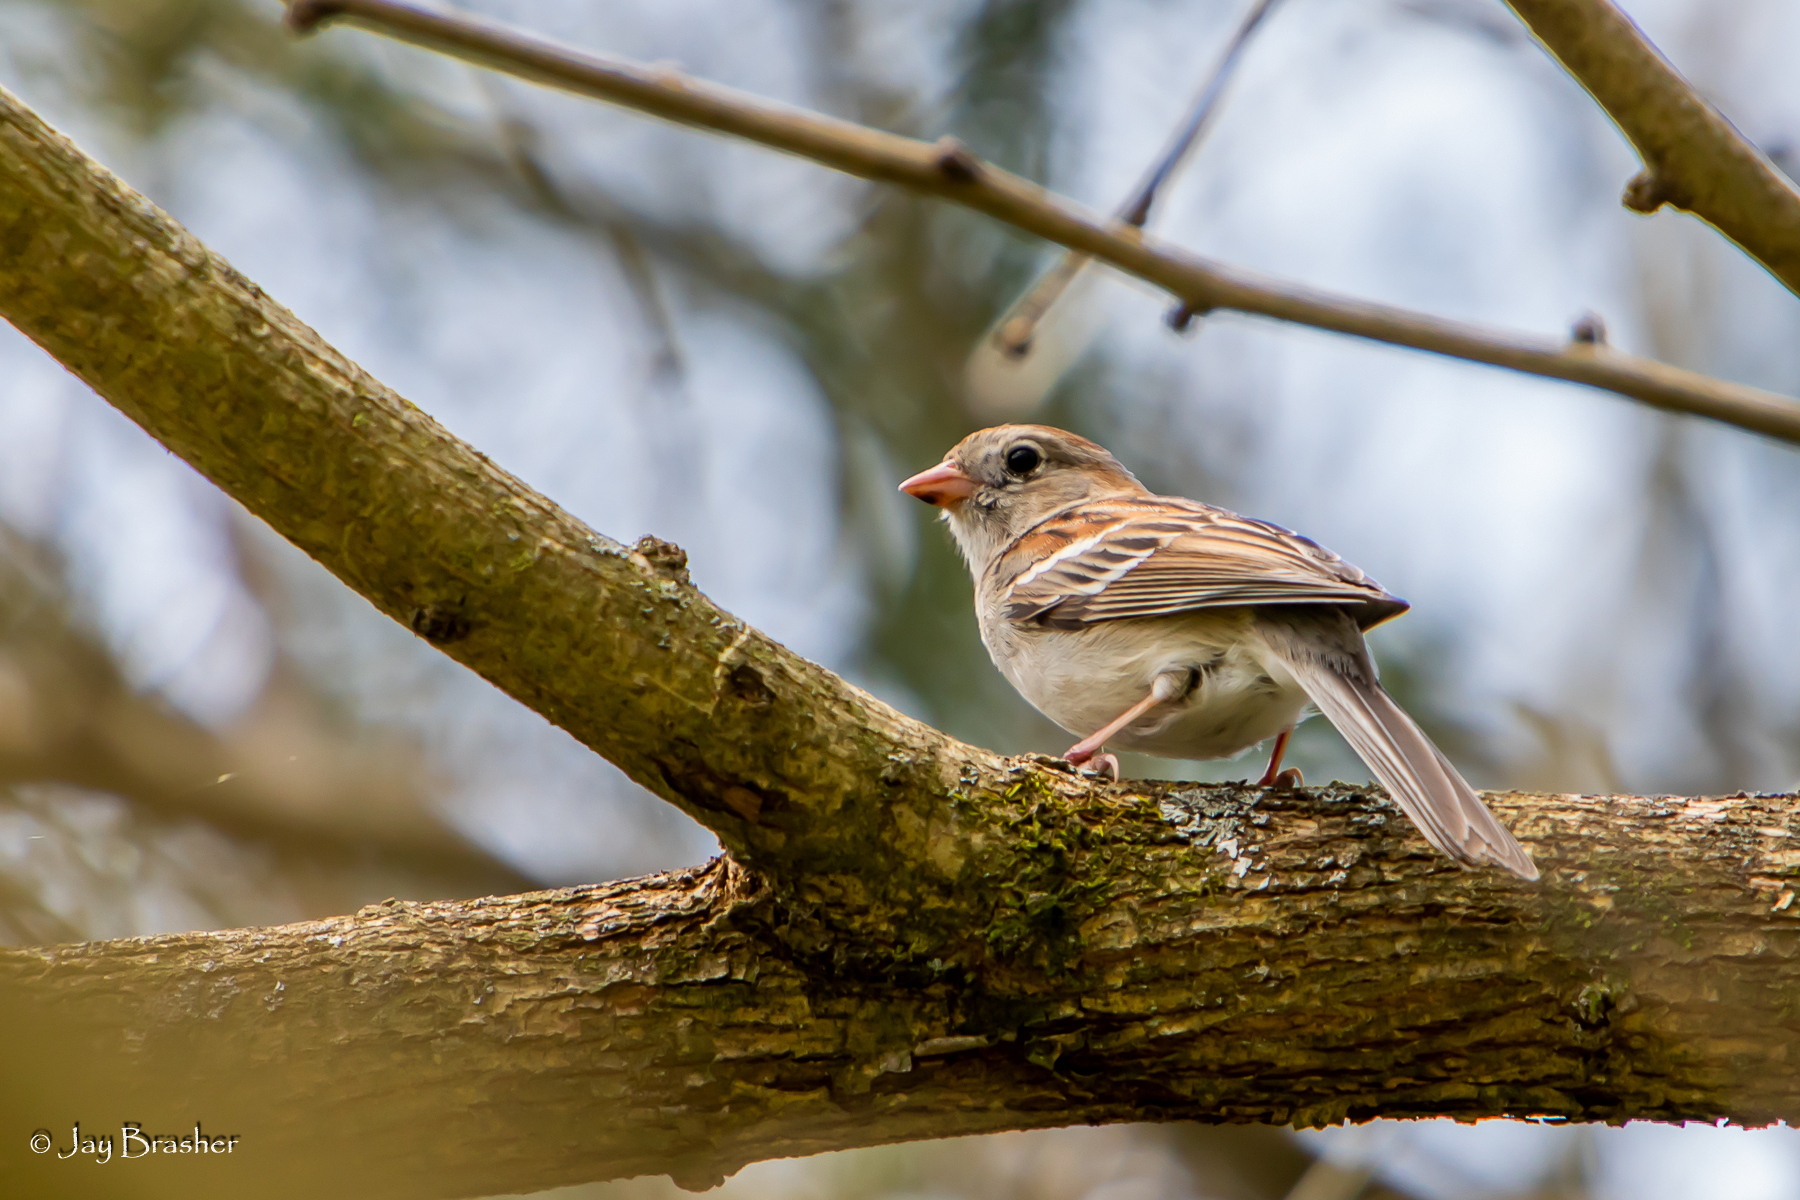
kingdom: Animalia
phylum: Chordata
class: Aves
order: Passeriformes
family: Passerellidae
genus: Spizella
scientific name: Spizella pusilla
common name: Field sparrow
